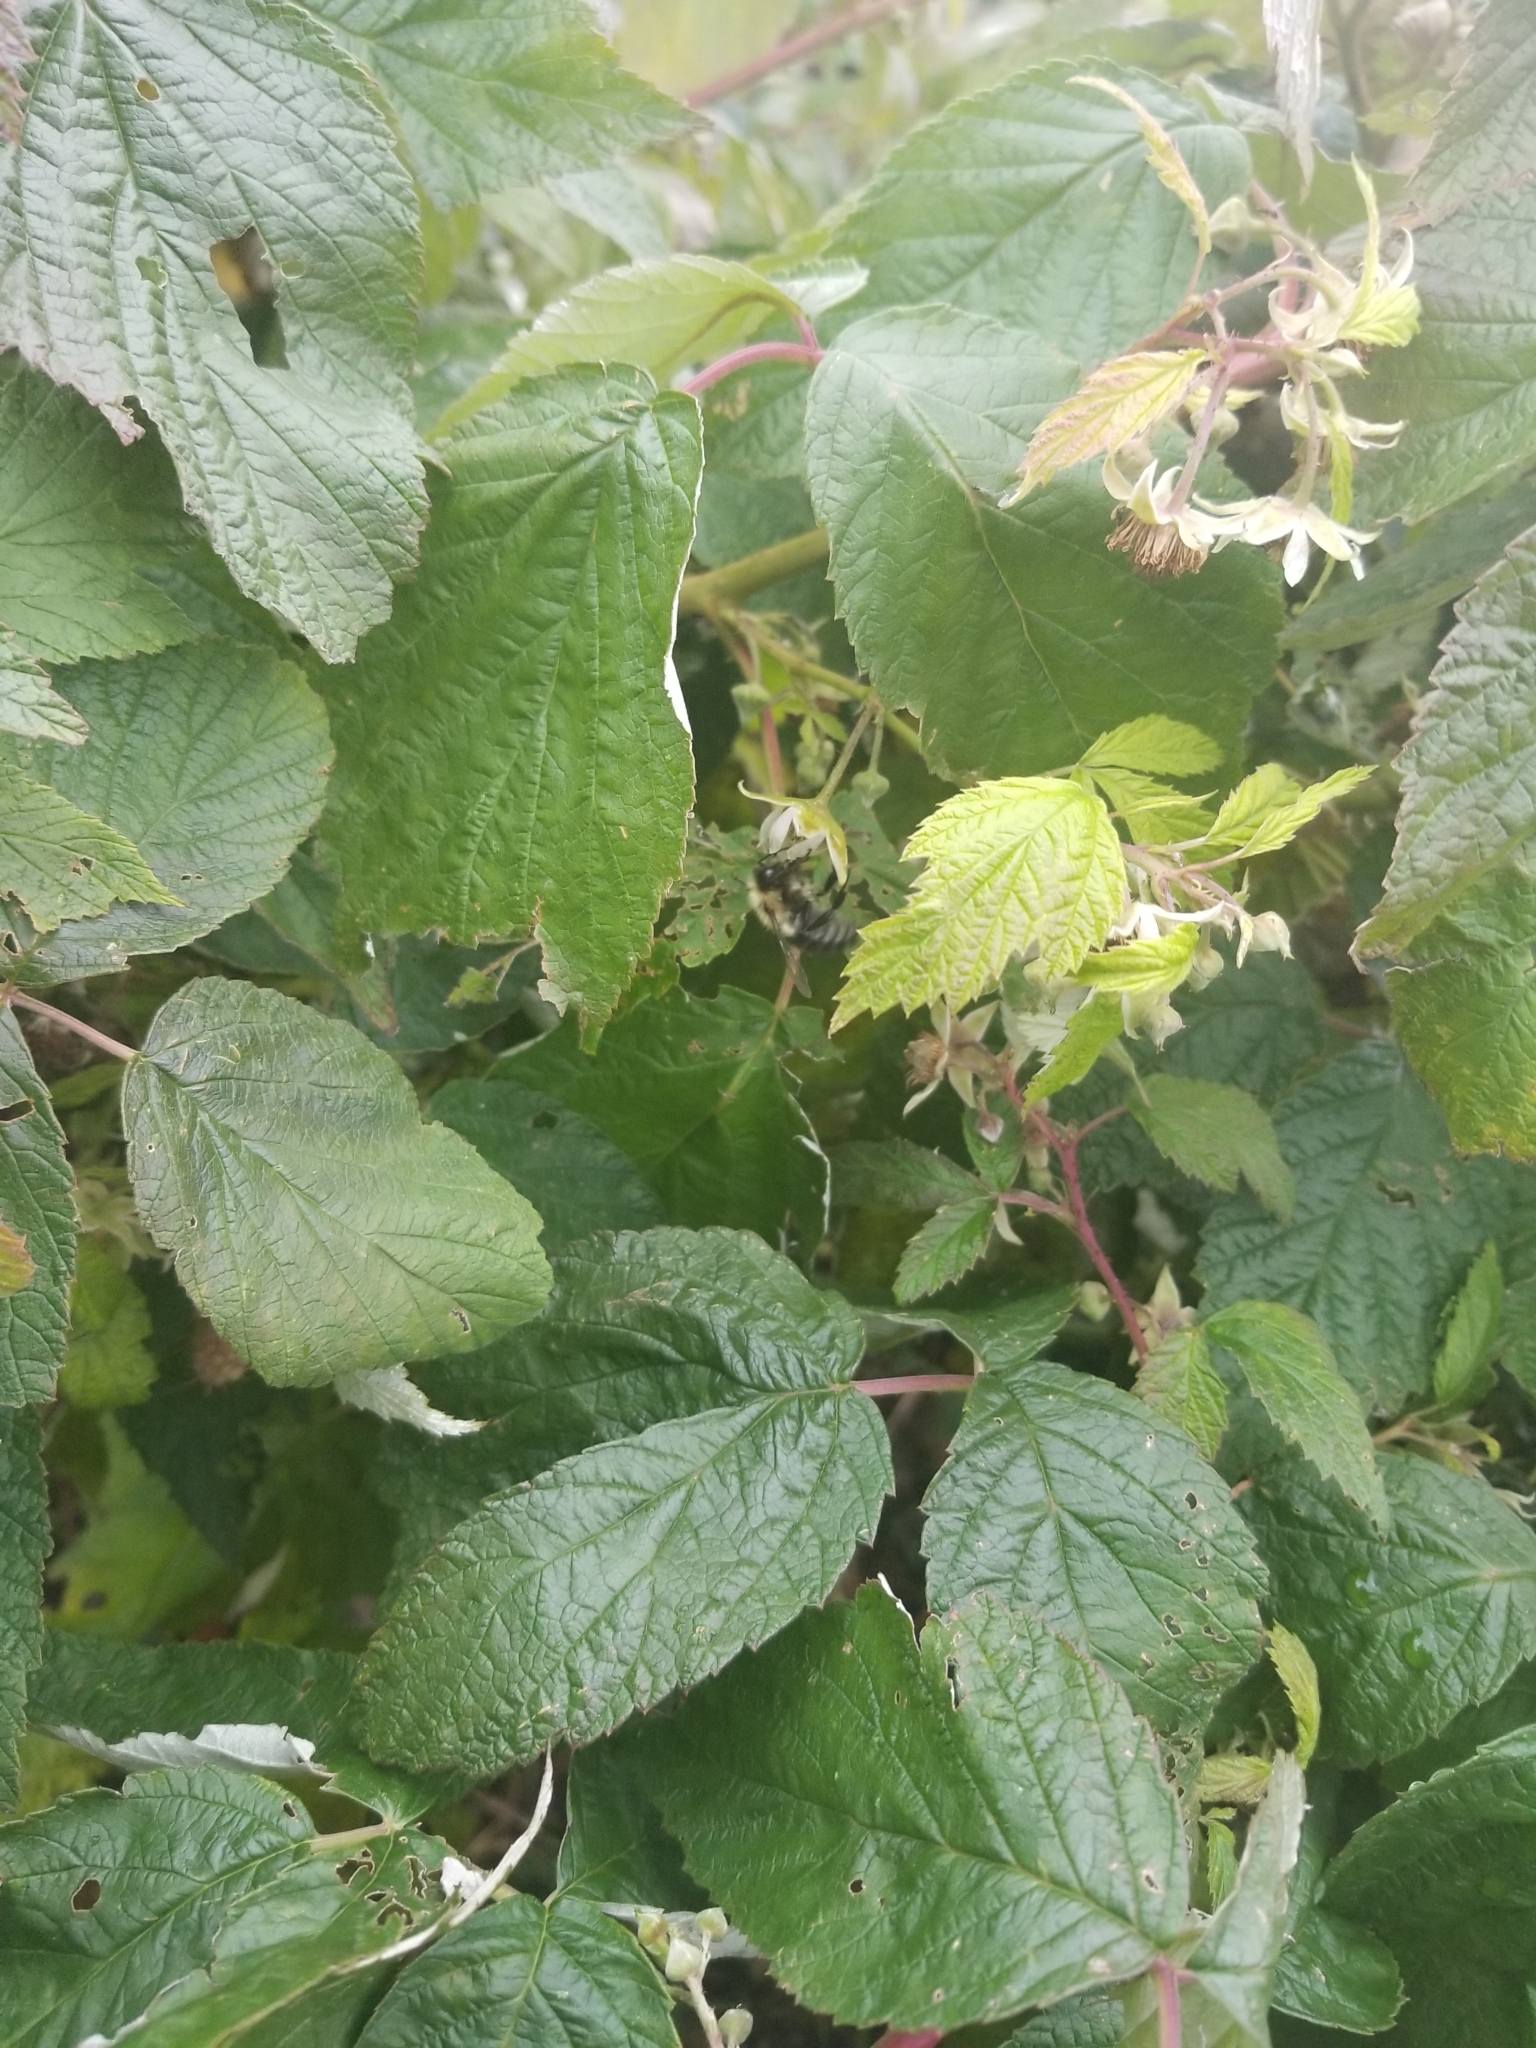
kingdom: Animalia
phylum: Arthropoda
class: Insecta
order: Hymenoptera
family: Apidae
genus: Bombus
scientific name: Bombus impatiens
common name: Common eastern bumble bee
